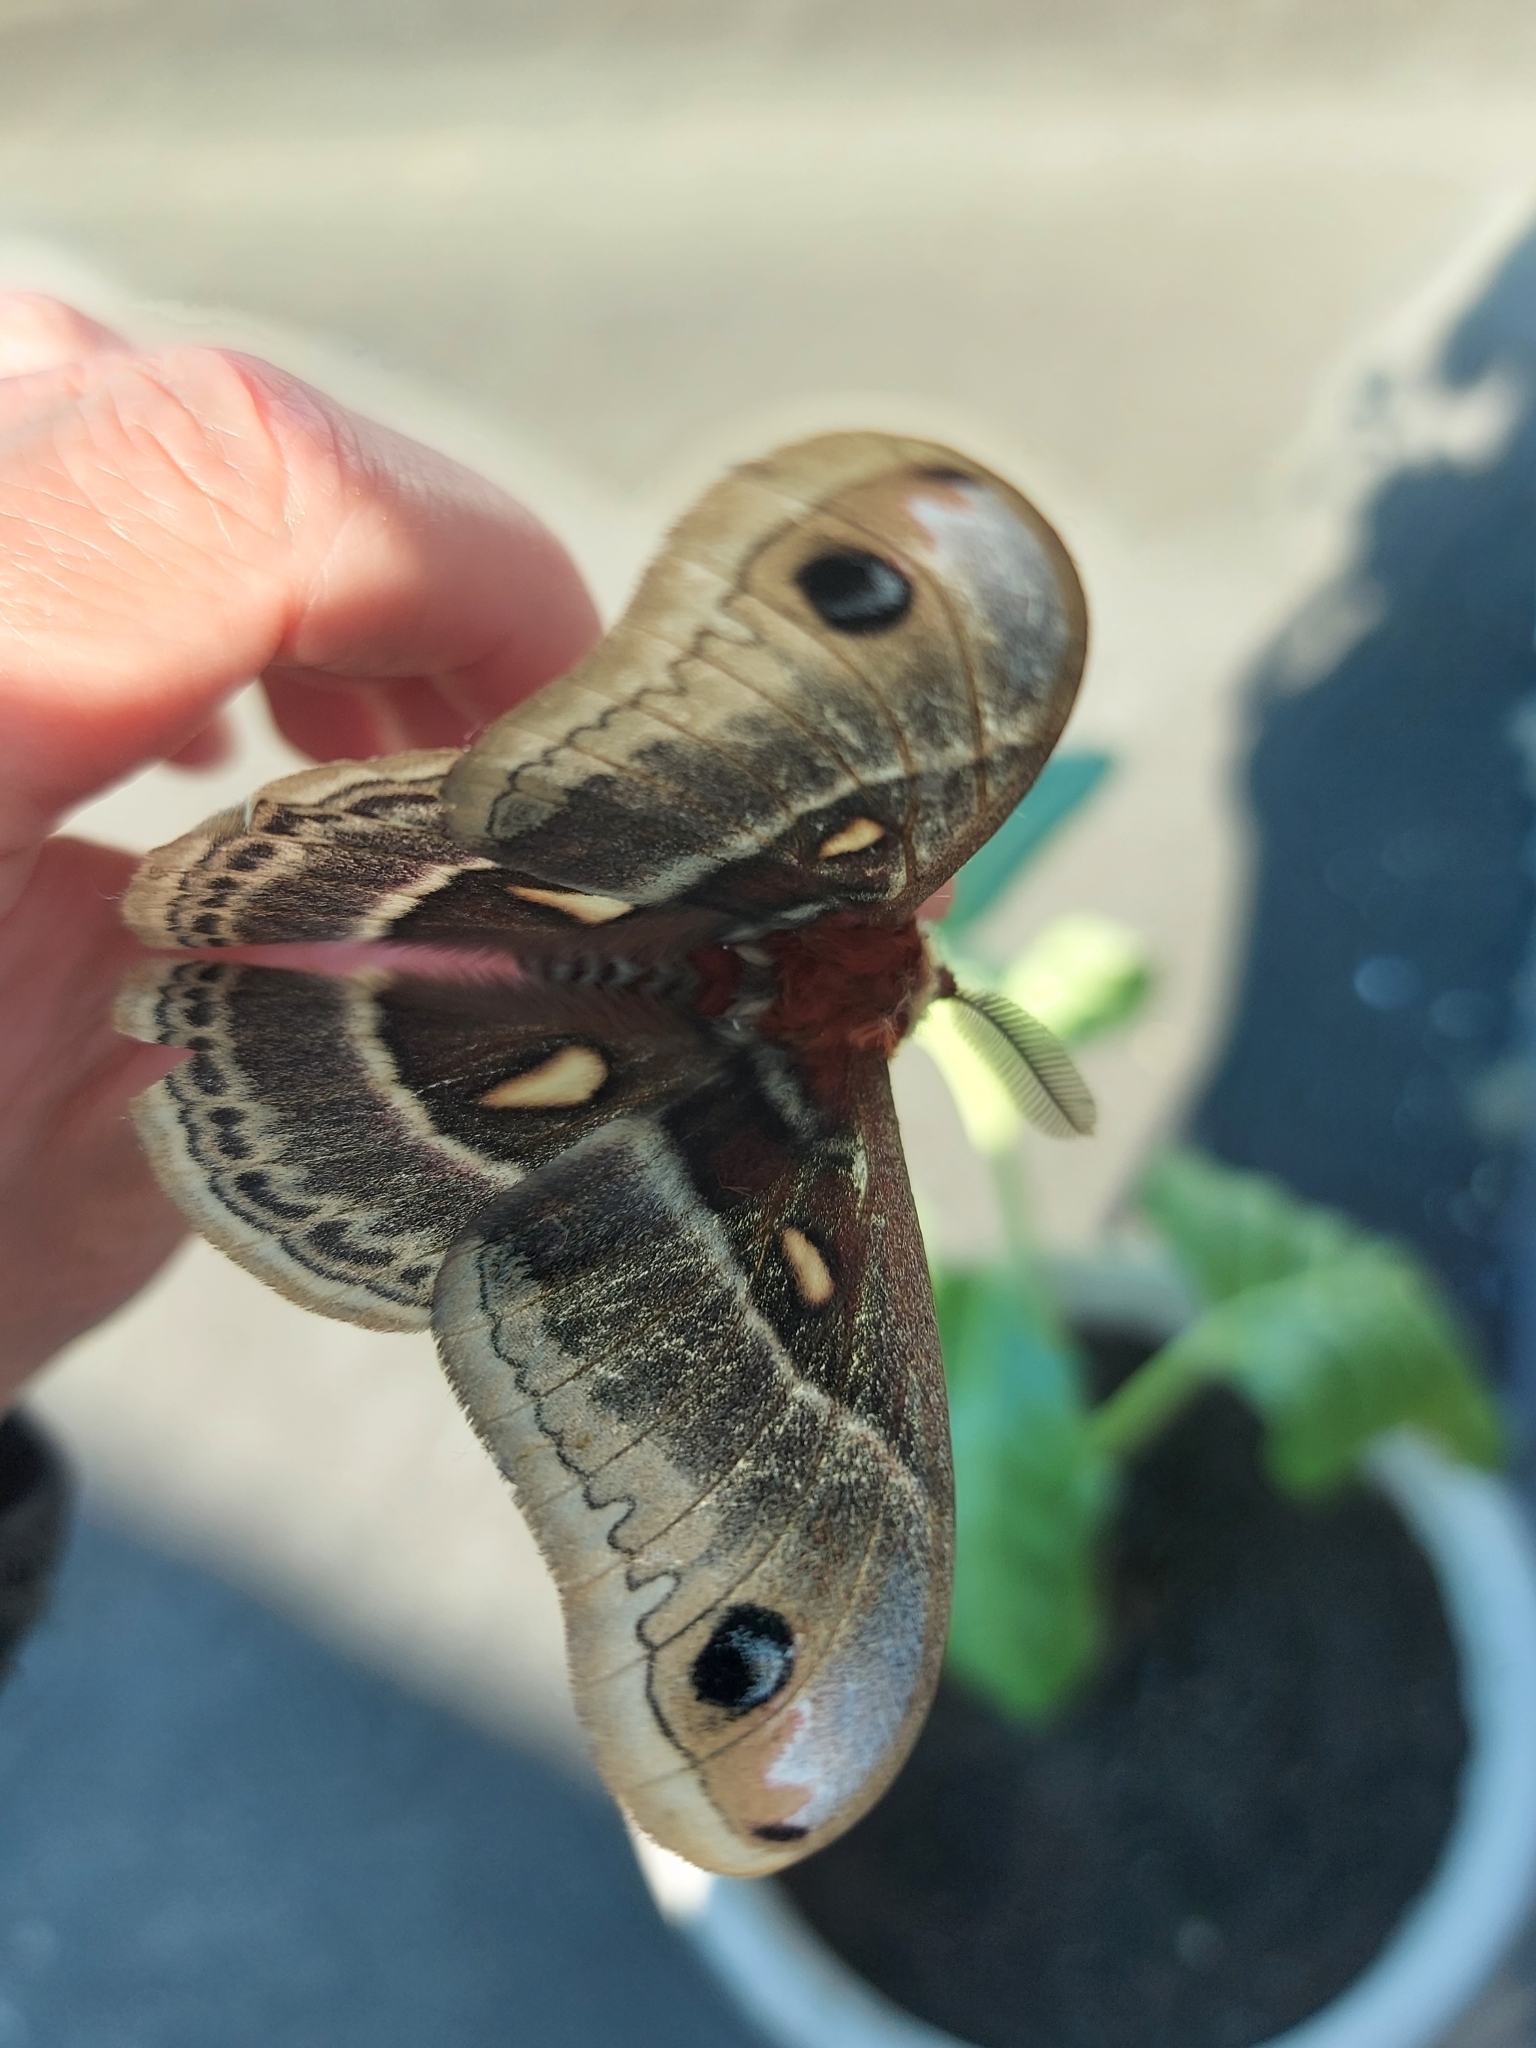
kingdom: Animalia
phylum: Arthropoda
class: Insecta
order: Lepidoptera
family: Saturniidae
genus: Hyalophora
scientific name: Hyalophora columbia
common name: Columbia silkmoth
